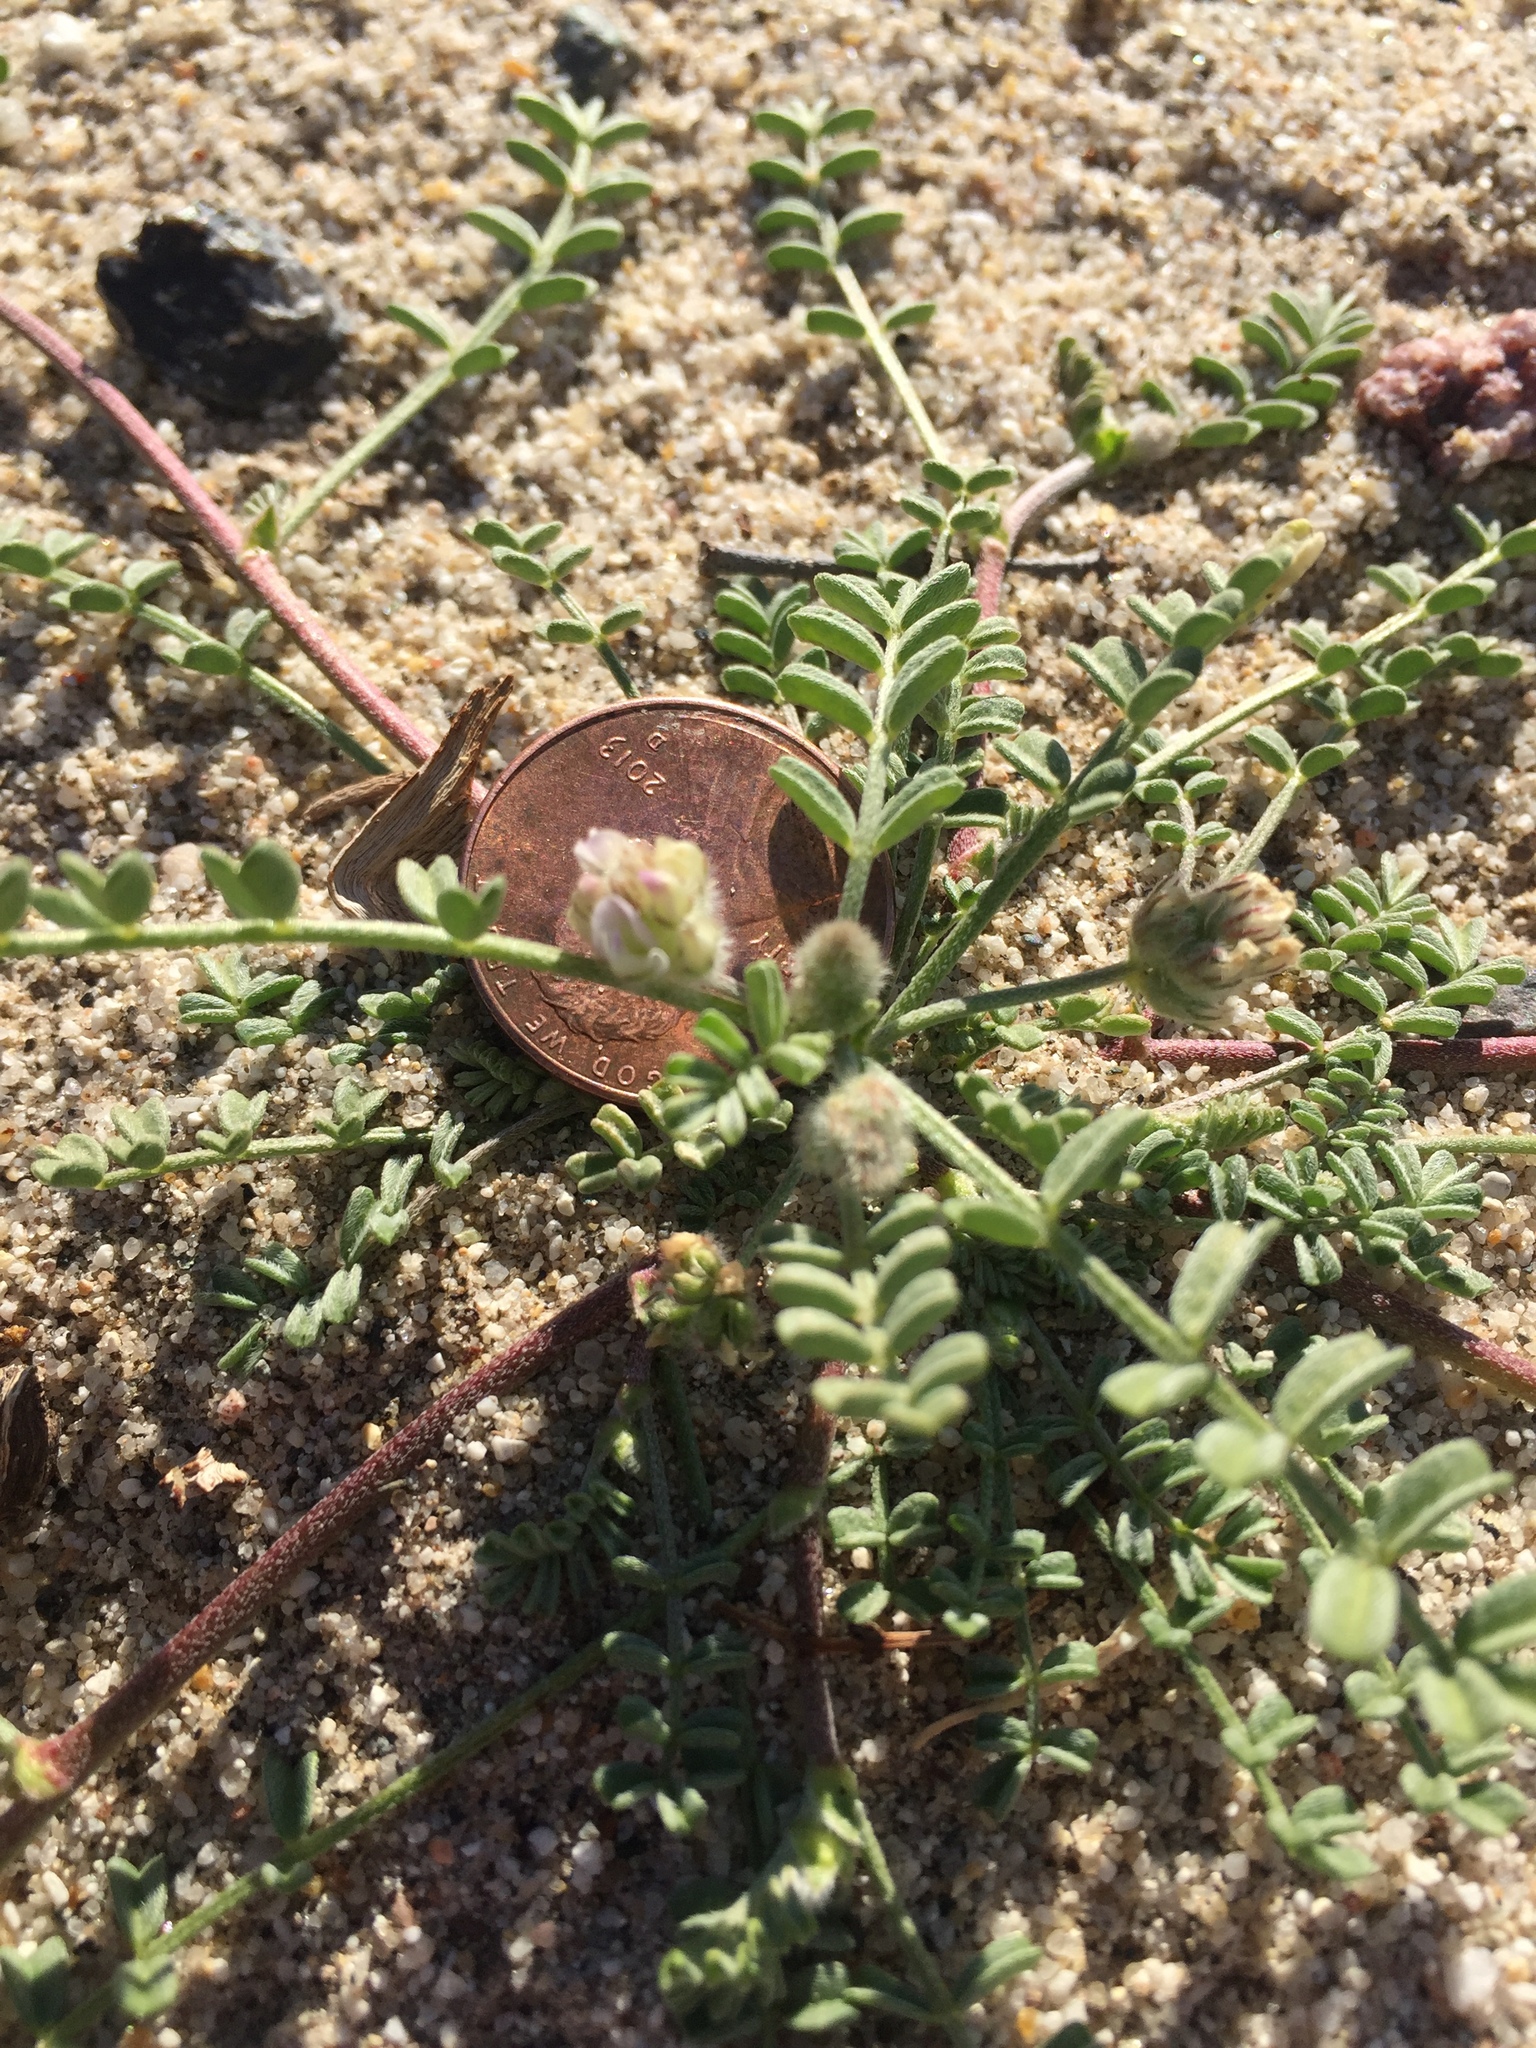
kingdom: Plantae
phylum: Tracheophyta
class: Magnoliopsida
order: Fabales
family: Fabaceae
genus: Astragalus
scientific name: Astragalus didymocarpus
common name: Dwarf white milkvetch
